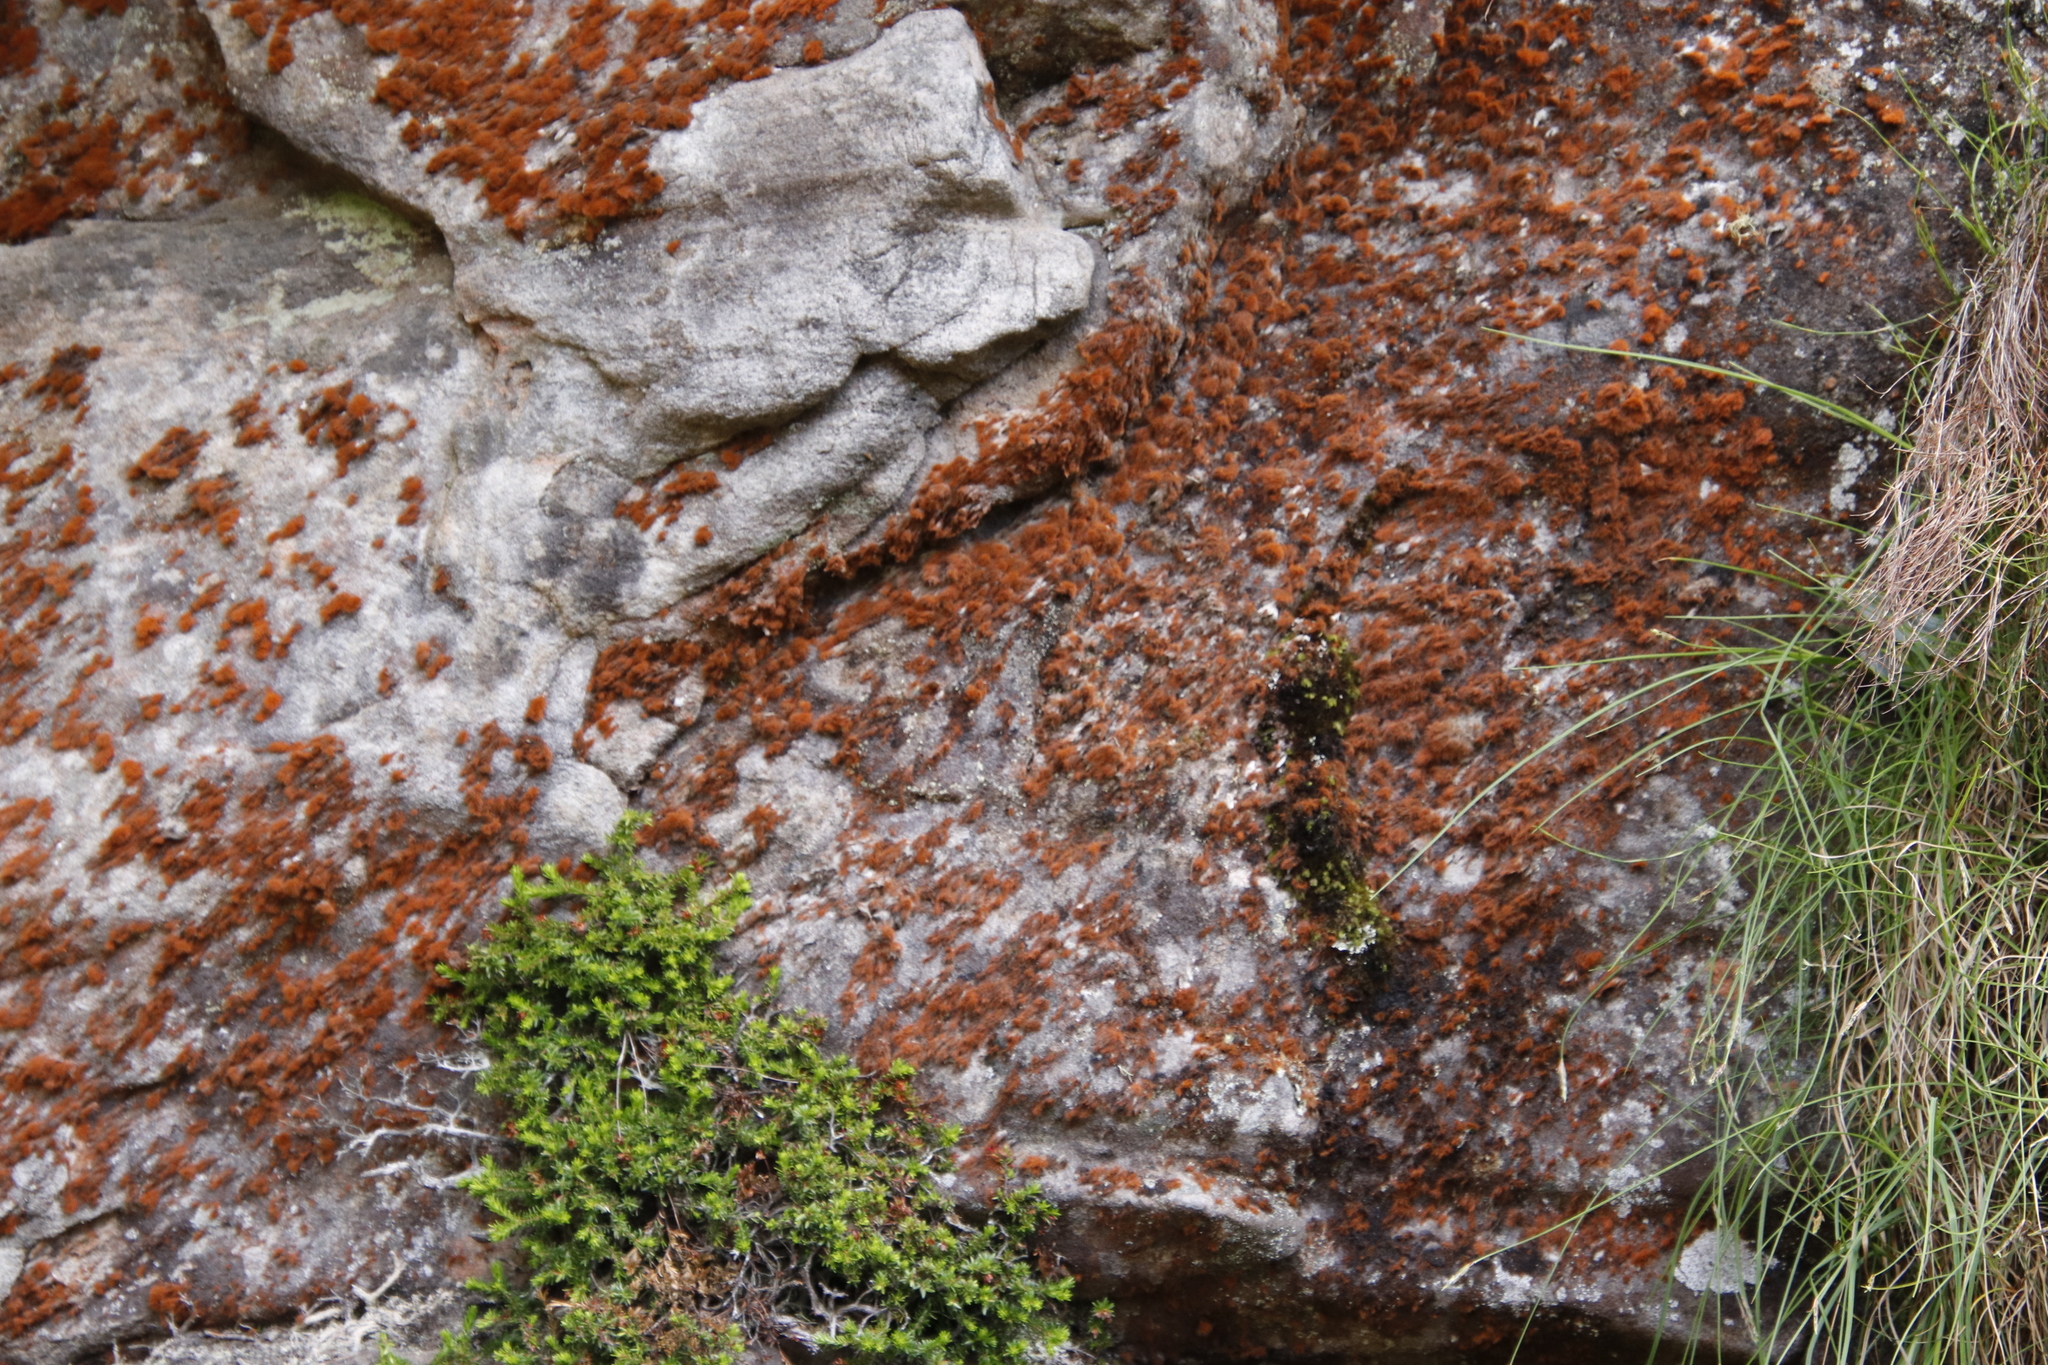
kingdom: Plantae
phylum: Tracheophyta
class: Magnoliopsida
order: Ericales
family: Ericaceae
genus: Erica
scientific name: Erica depressa
